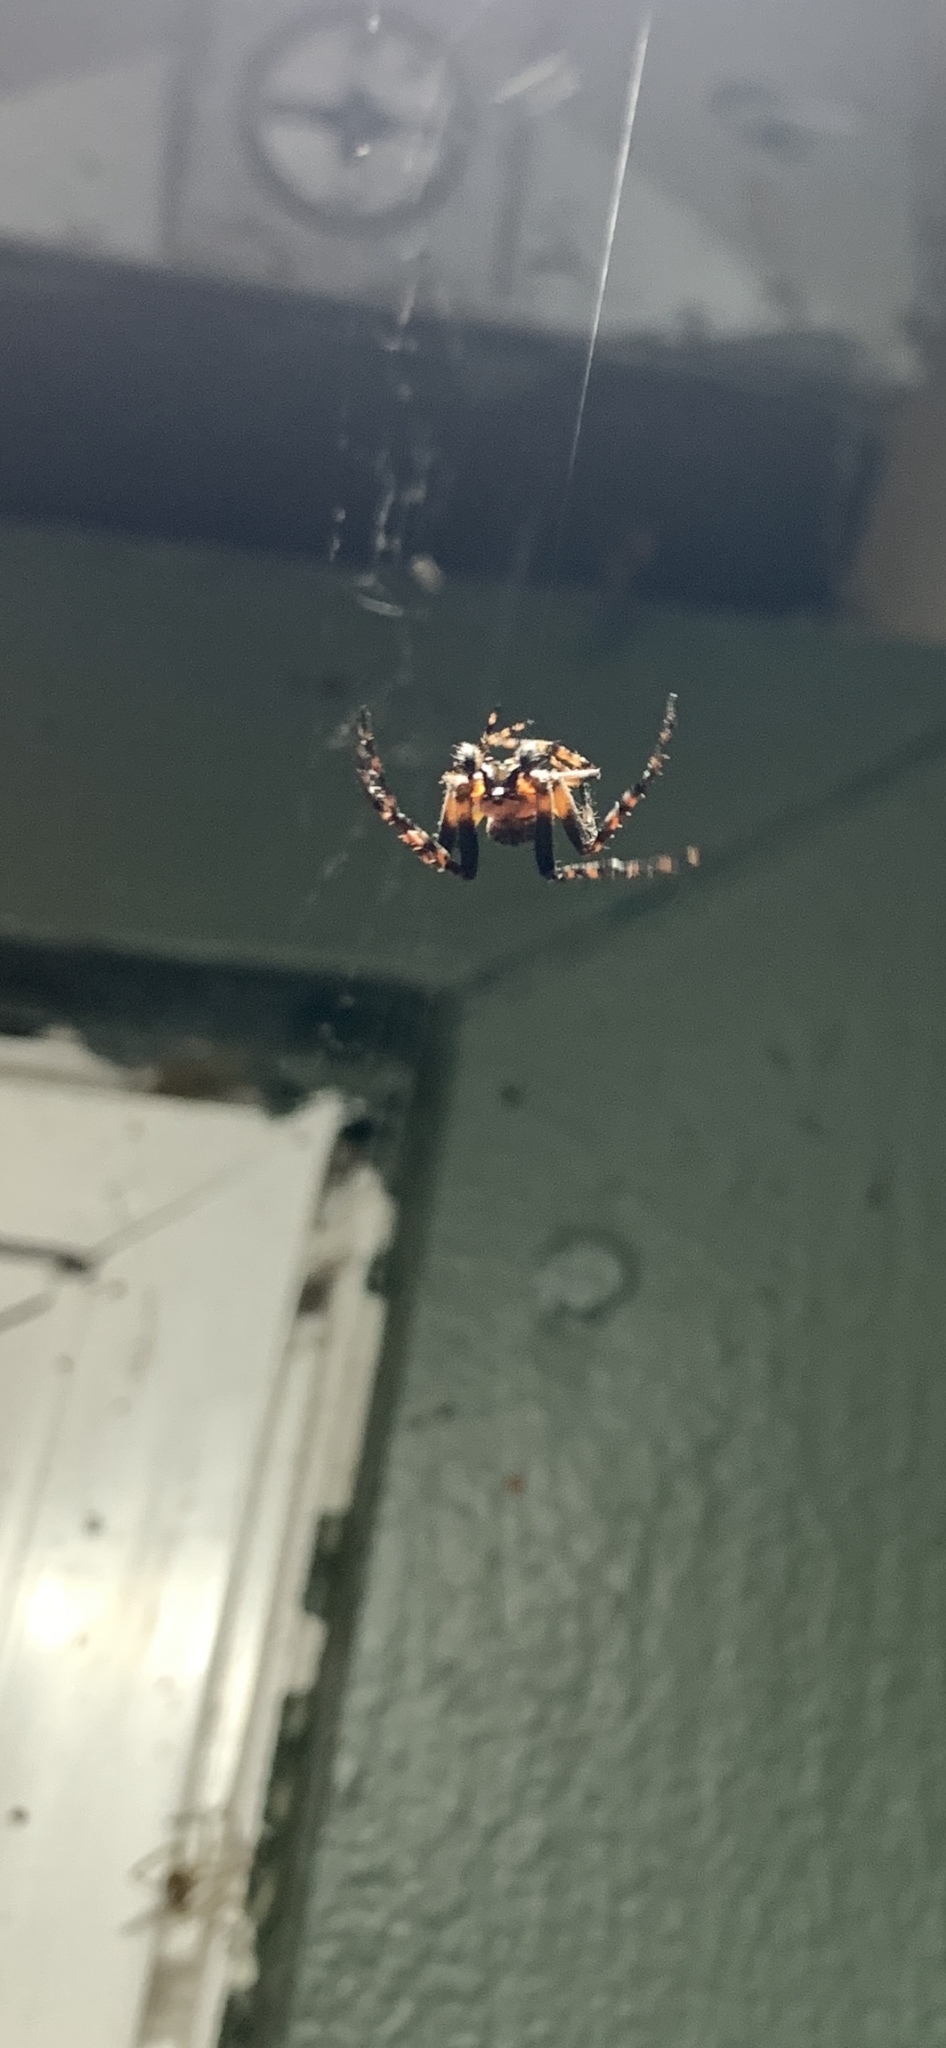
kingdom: Animalia
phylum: Arthropoda
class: Arachnida
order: Araneae
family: Araneidae
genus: Araneus
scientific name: Araneus diadematus
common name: Cross orbweaver
